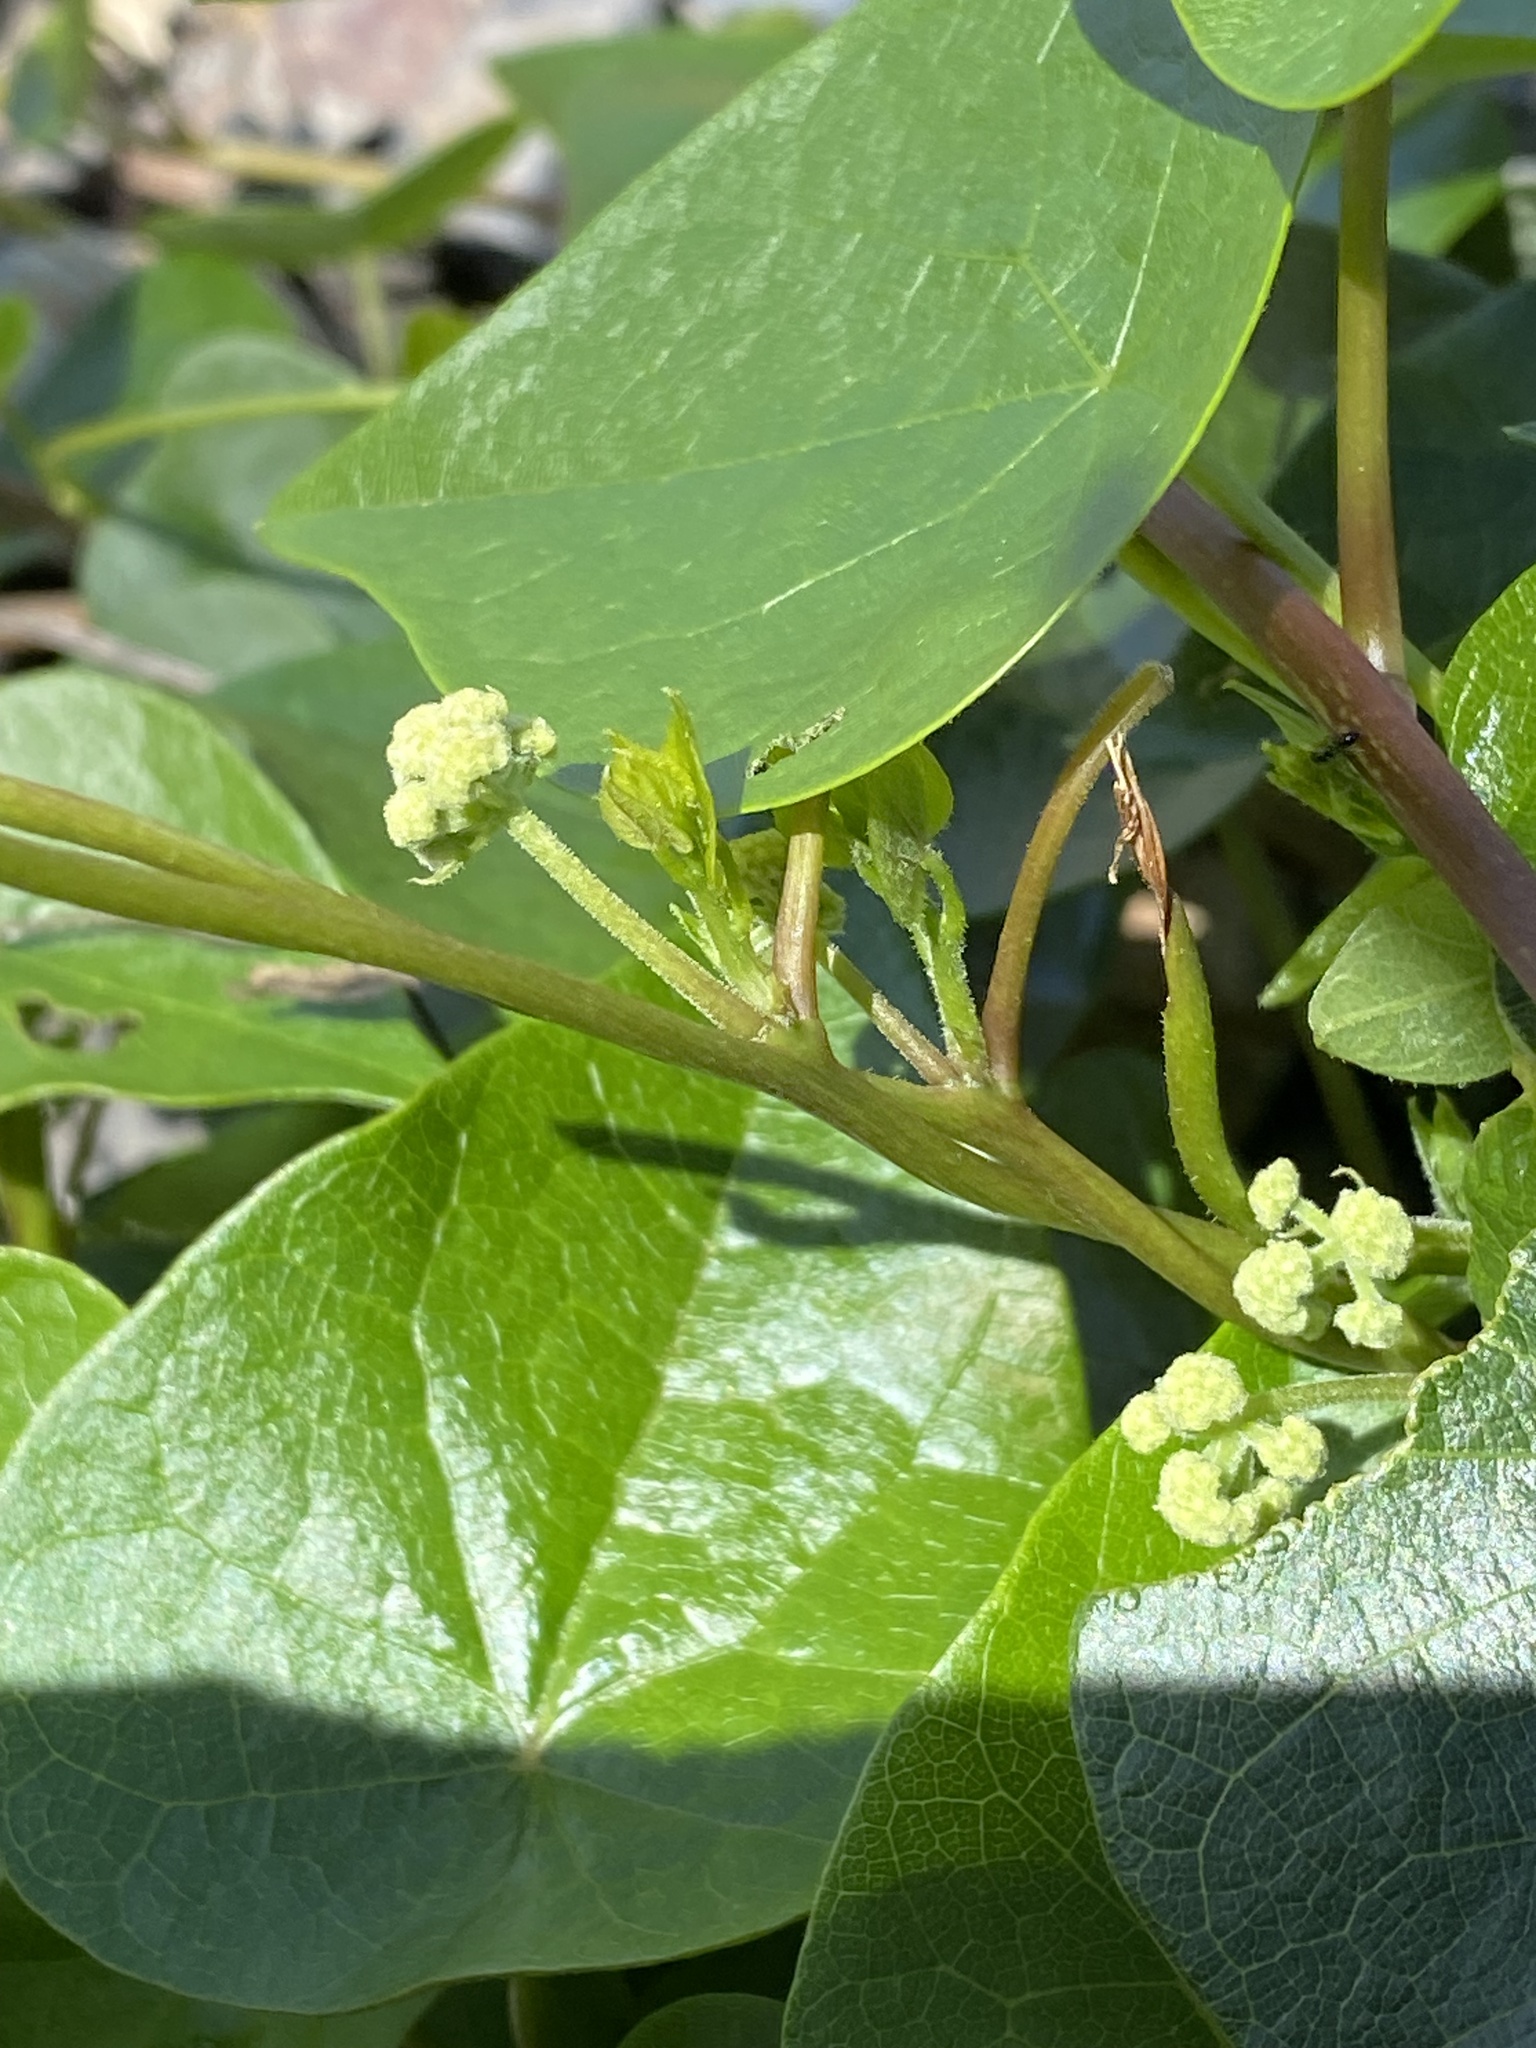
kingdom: Plantae
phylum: Tracheophyta
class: Magnoliopsida
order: Ranunculales
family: Menispermaceae
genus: Stephania
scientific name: Stephania japonica
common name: Snake vine
